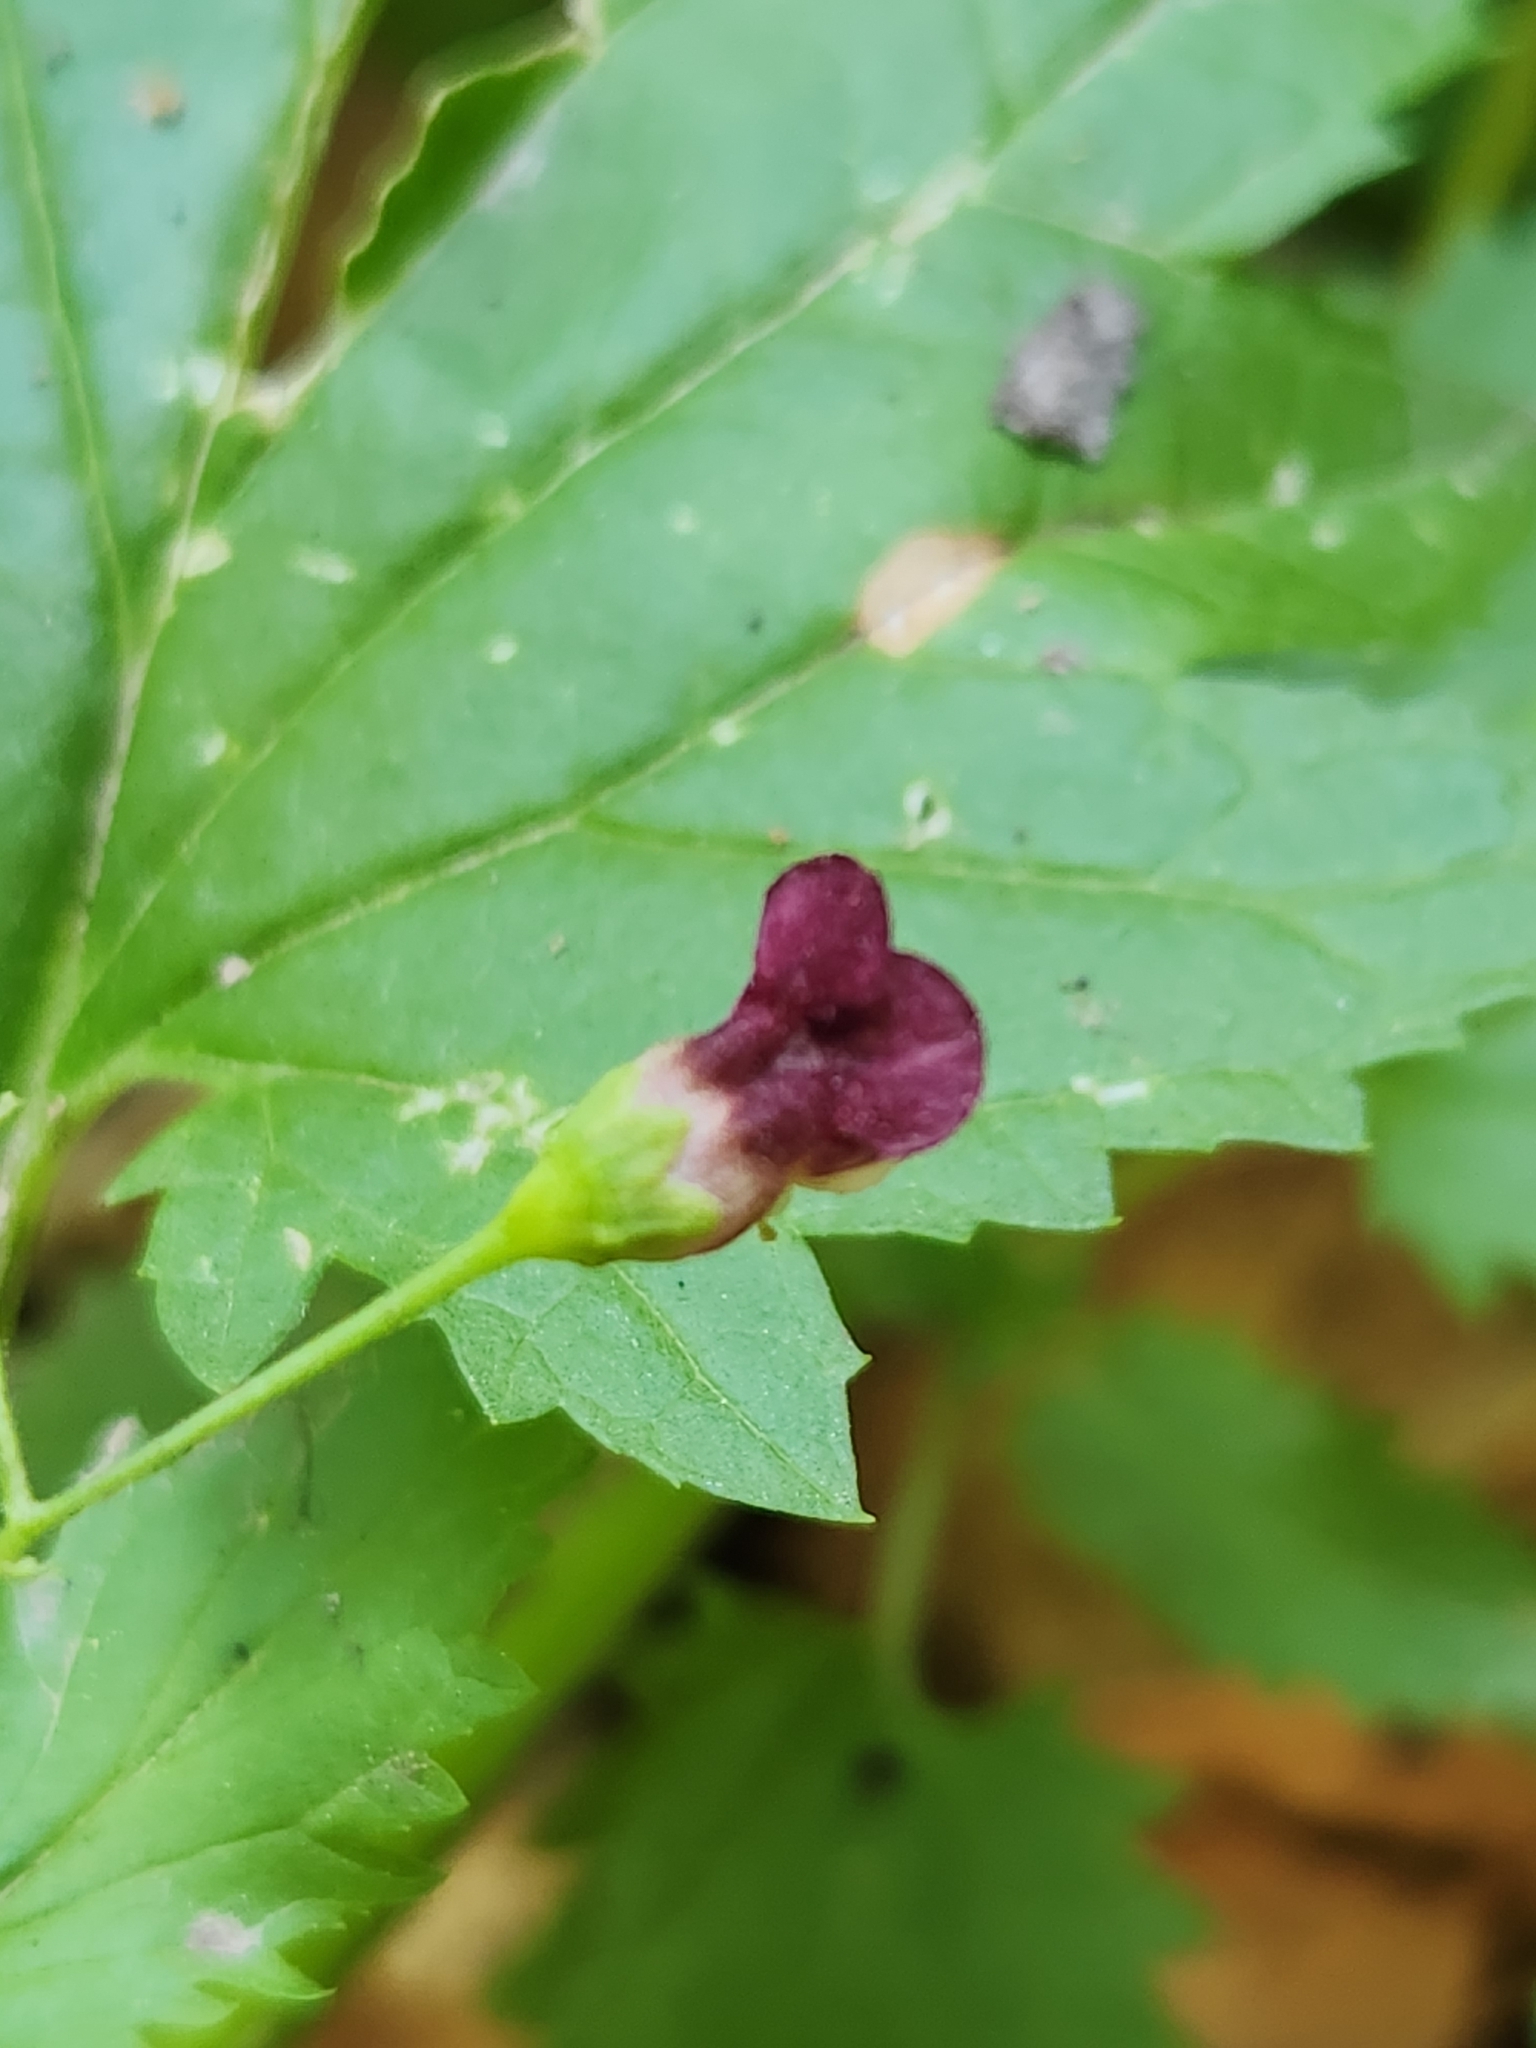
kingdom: Plantae
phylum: Tracheophyta
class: Magnoliopsida
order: Lamiales
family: Scrophulariaceae
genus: Scrophularia
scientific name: Scrophularia californica
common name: California figwort
